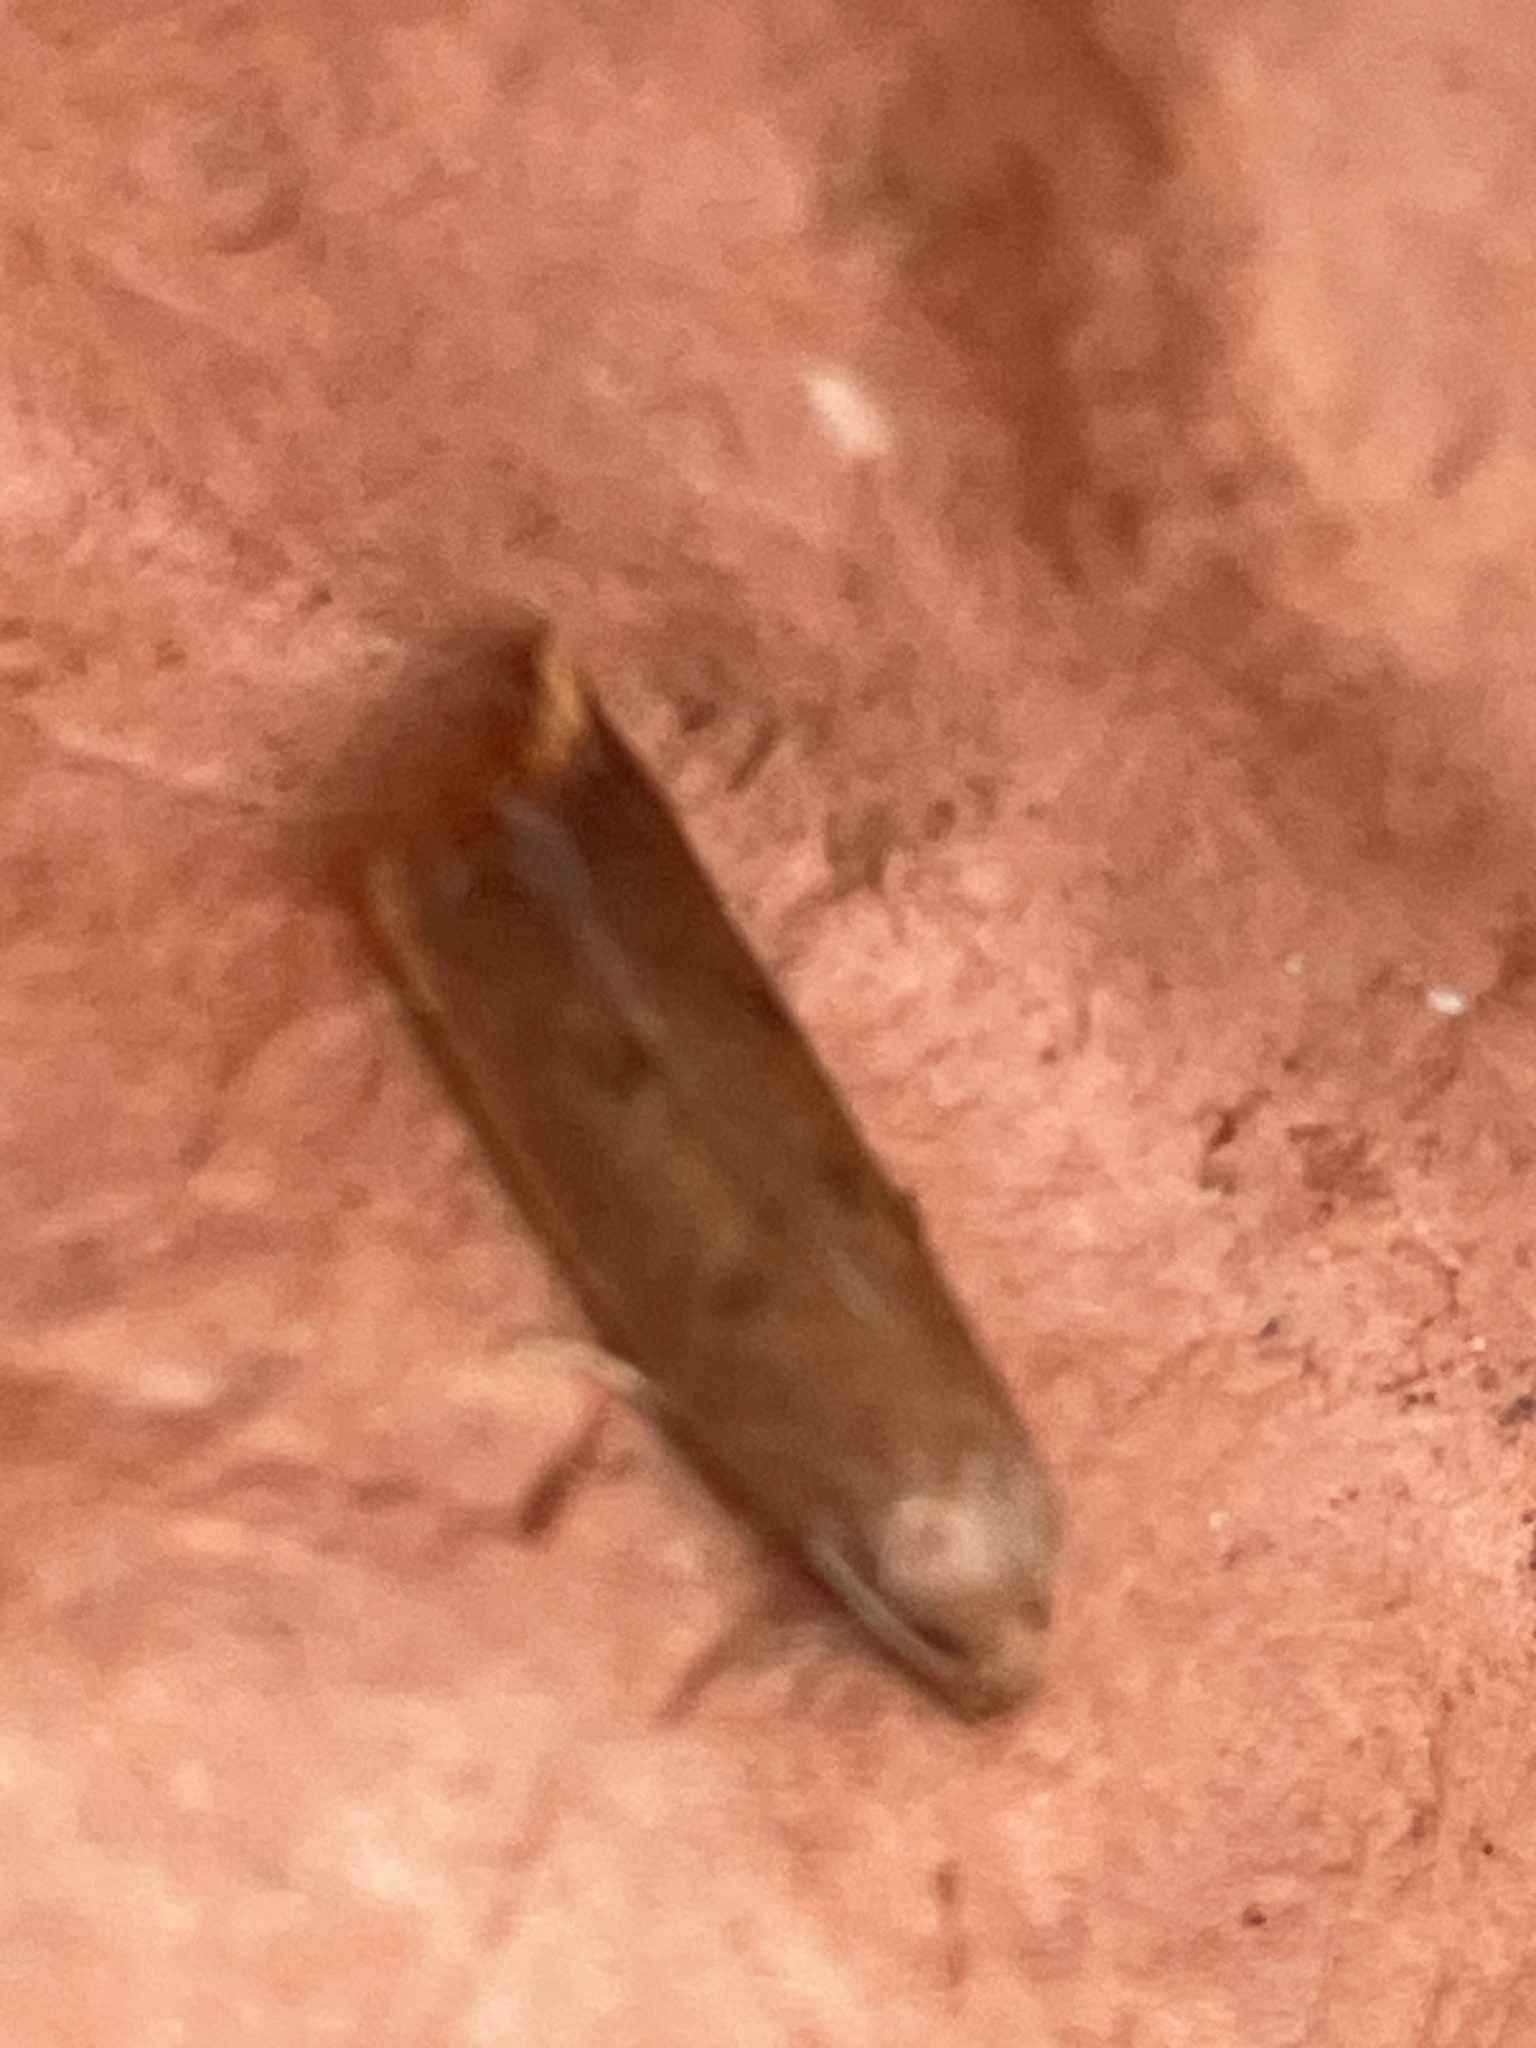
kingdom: Animalia
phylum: Arthropoda
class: Insecta
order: Lepidoptera
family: Oecophoridae
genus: Tachystola
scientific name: Tachystola acroxantha
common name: Ruddy streak
